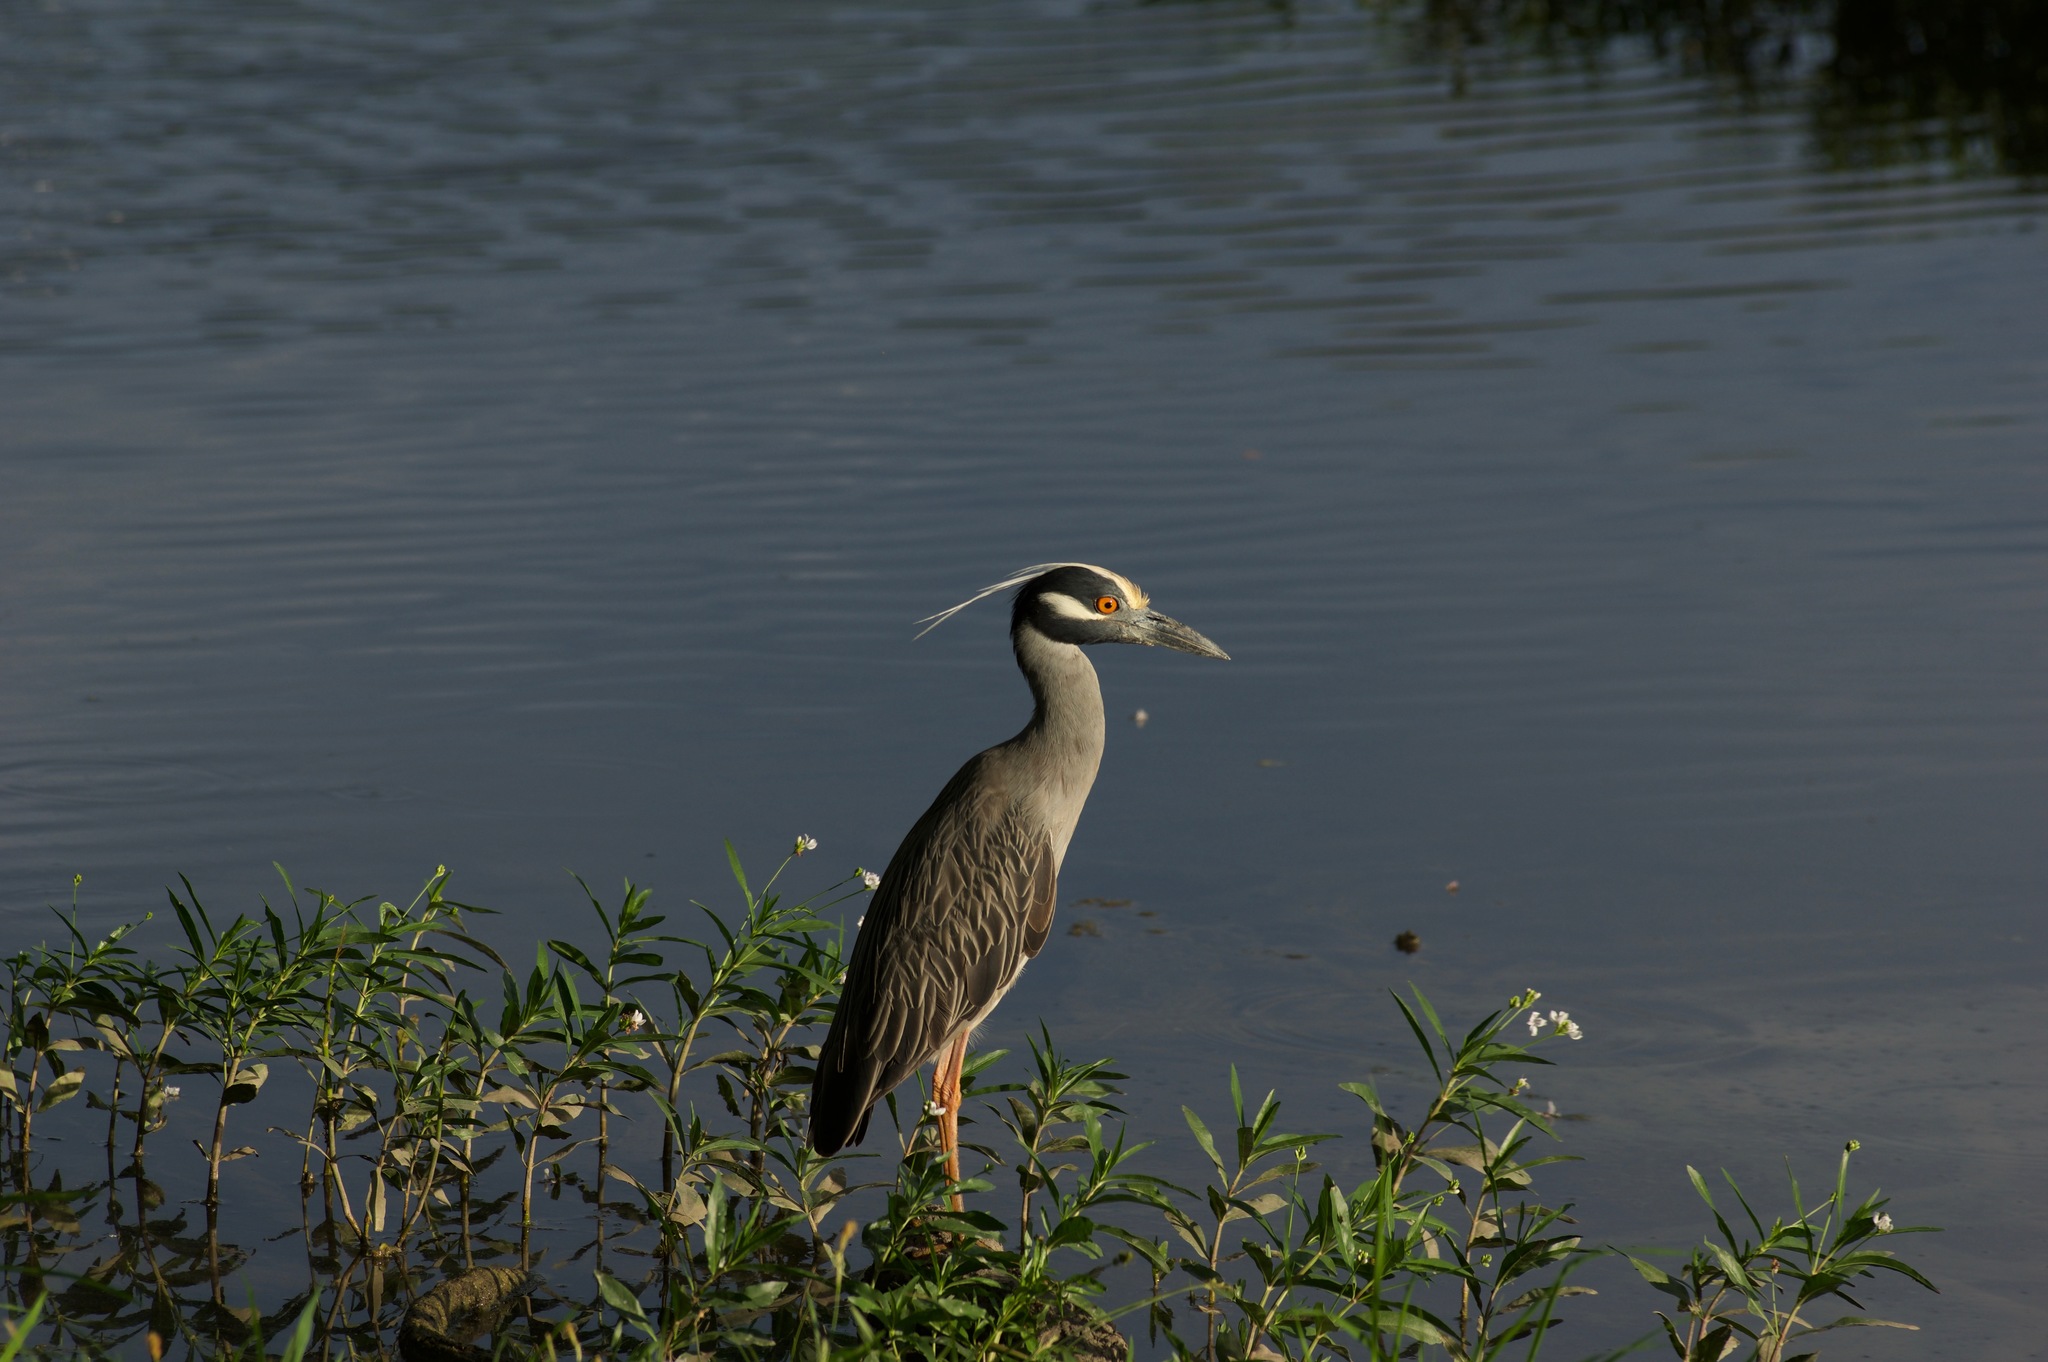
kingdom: Animalia
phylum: Chordata
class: Aves
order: Pelecaniformes
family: Ardeidae
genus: Nyctanassa
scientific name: Nyctanassa violacea
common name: Yellow-crowned night heron
